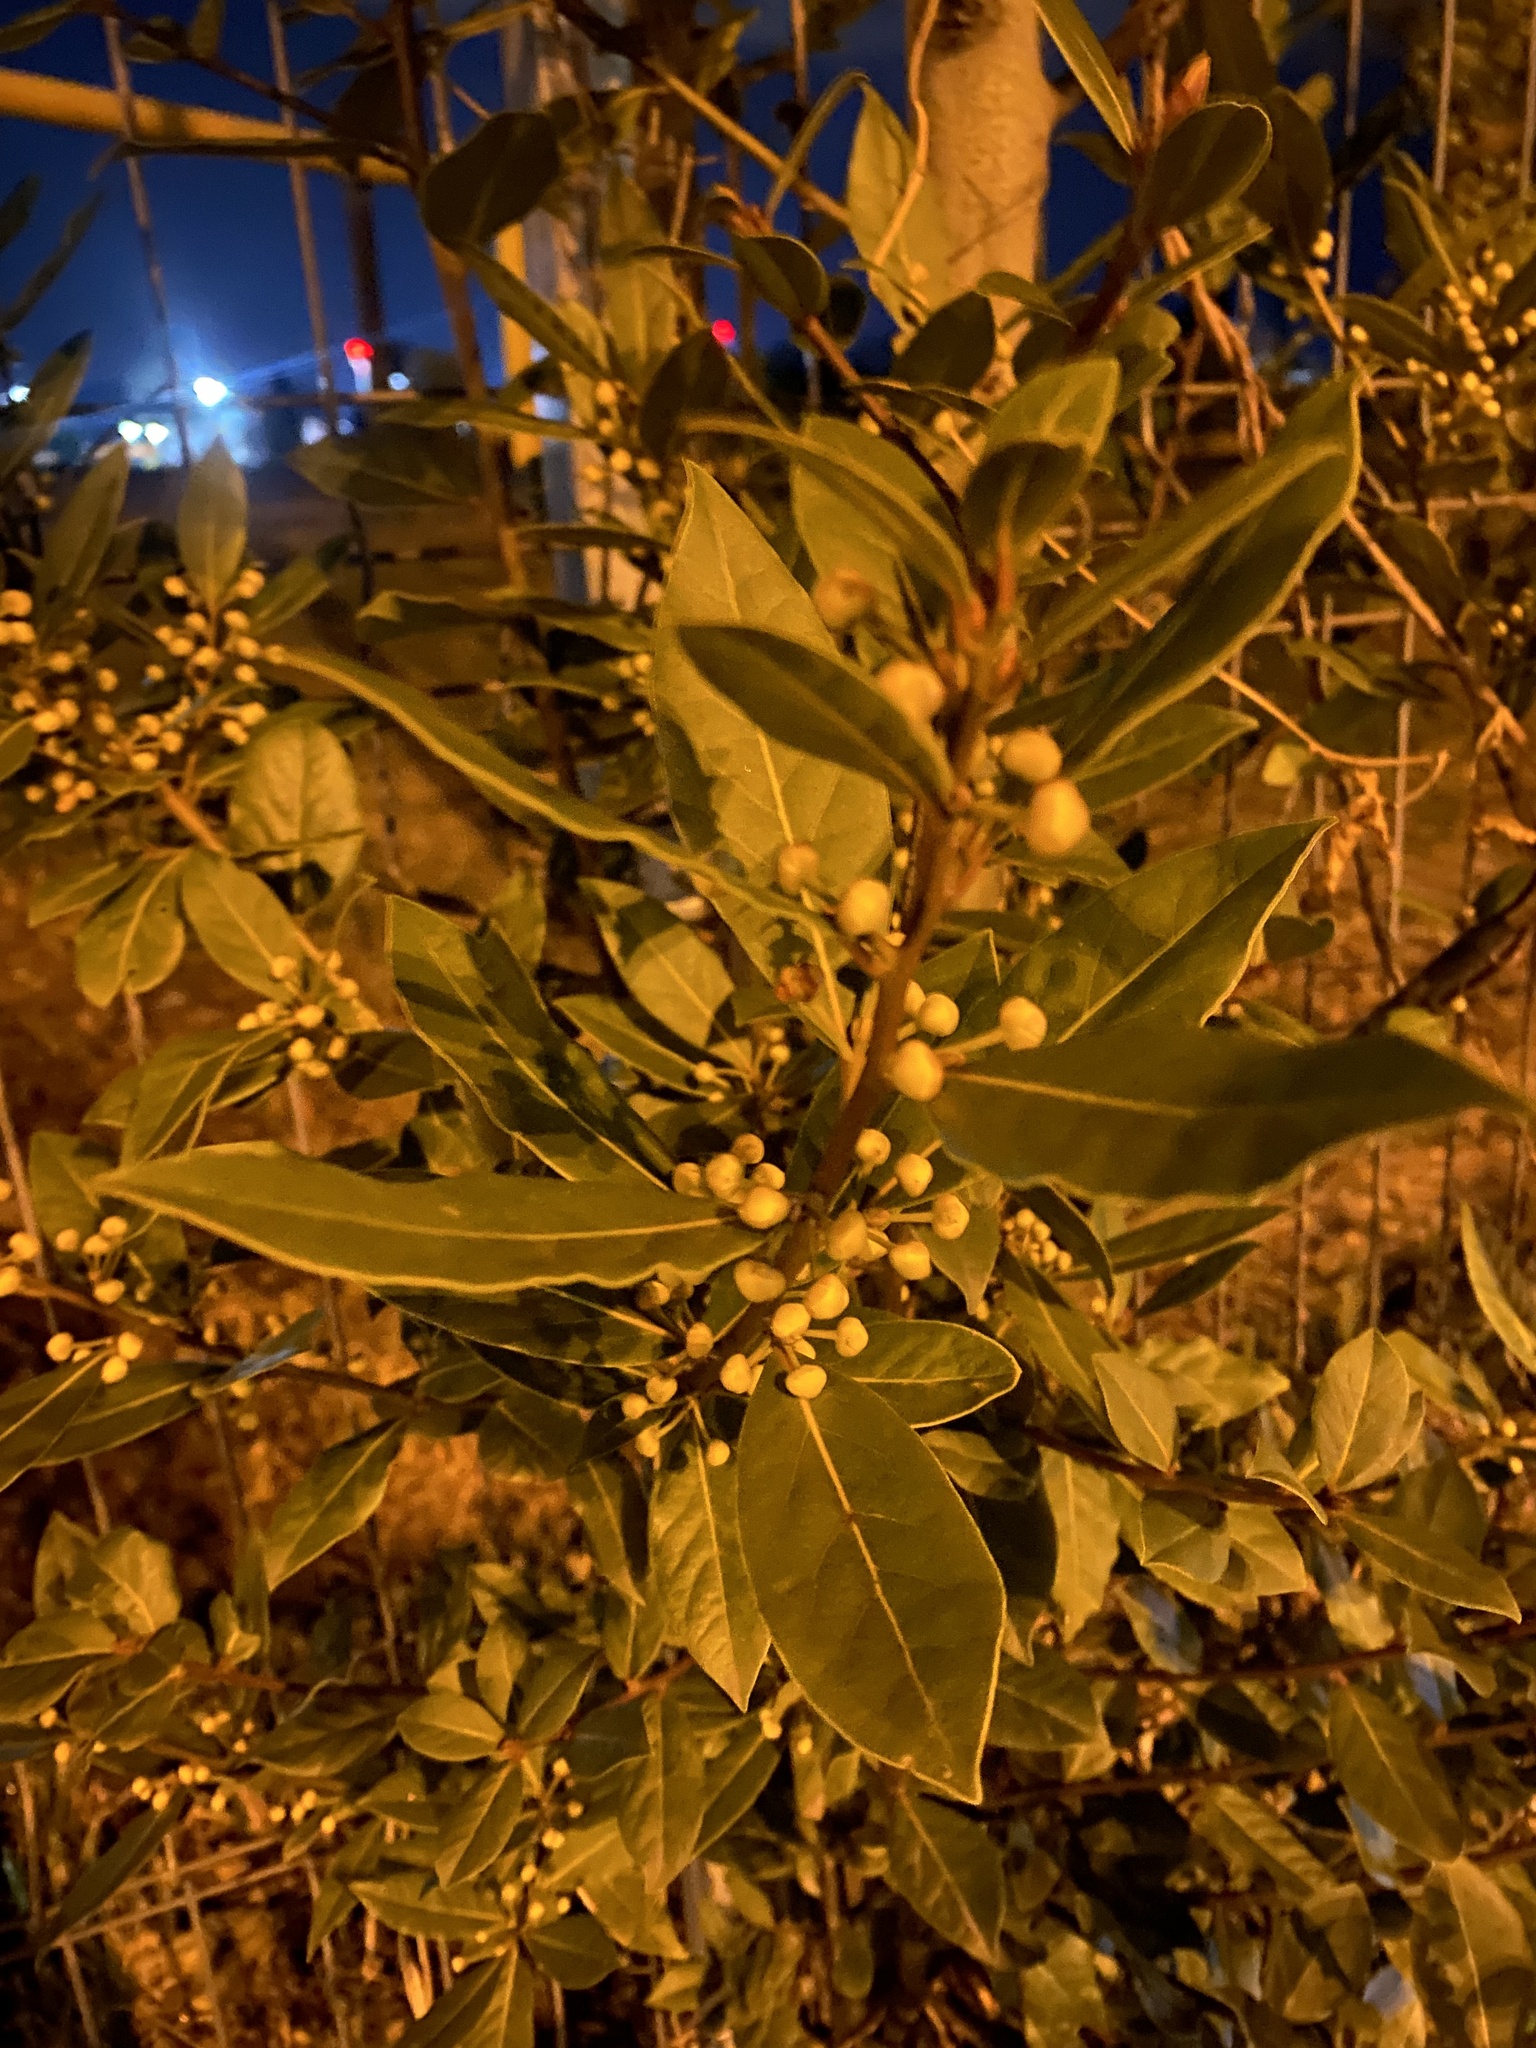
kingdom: Plantae
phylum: Tracheophyta
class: Magnoliopsida
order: Laurales
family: Lauraceae
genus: Laurus
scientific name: Laurus nobilis
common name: Bay
